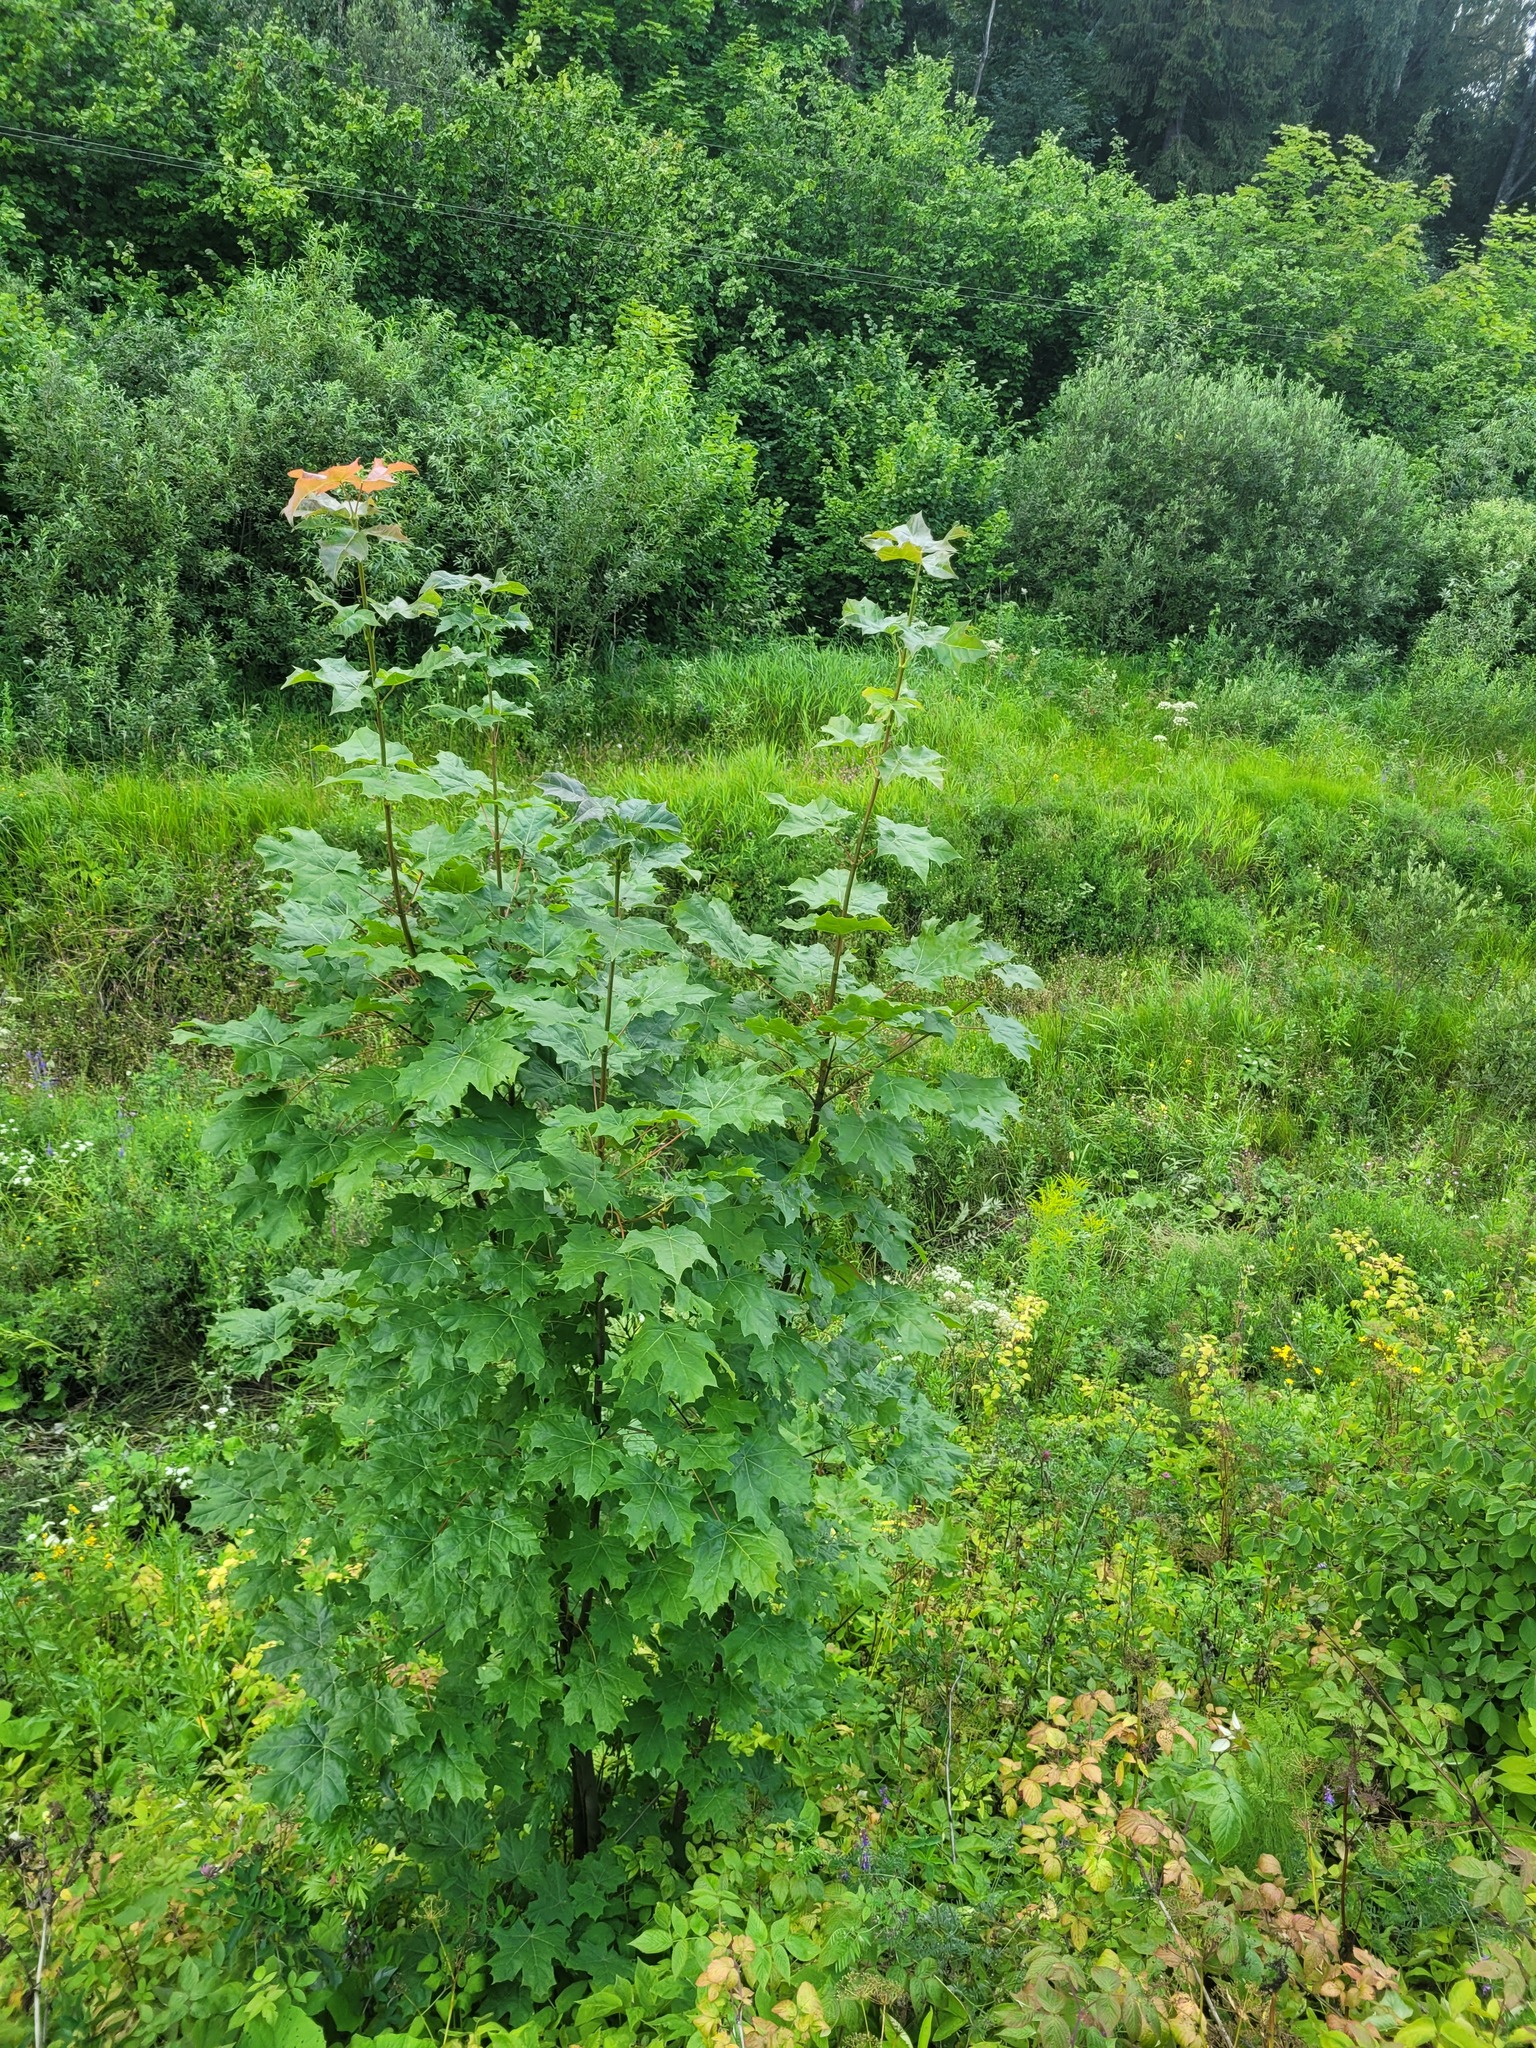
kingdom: Plantae
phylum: Tracheophyta
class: Magnoliopsida
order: Sapindales
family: Sapindaceae
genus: Acer
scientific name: Acer platanoides
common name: Norway maple
